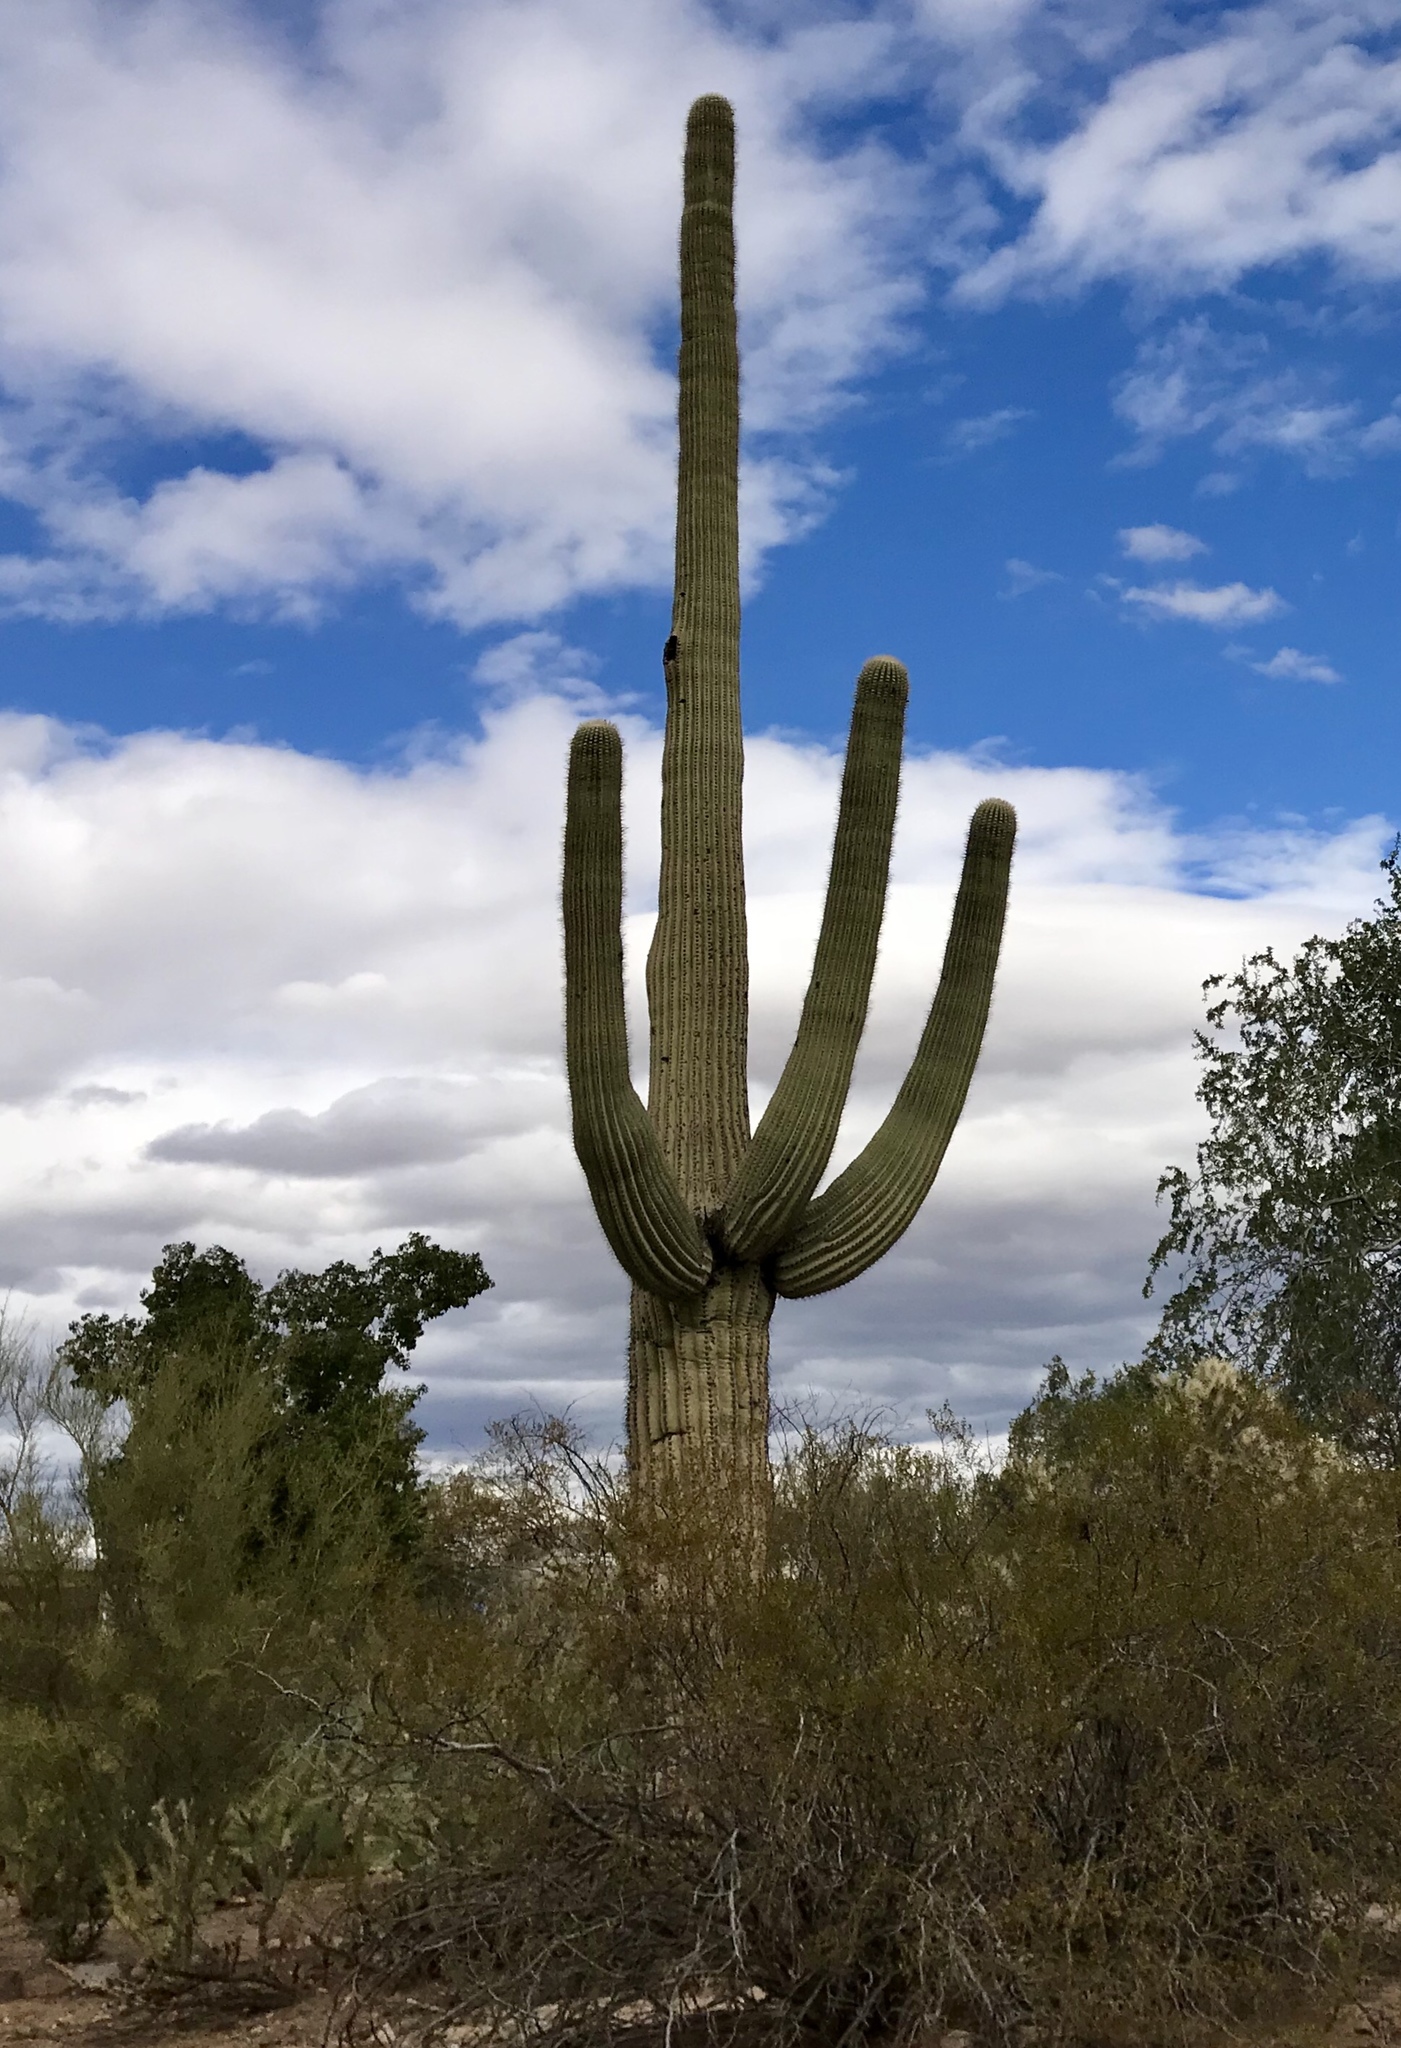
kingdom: Plantae
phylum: Tracheophyta
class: Magnoliopsida
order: Caryophyllales
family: Cactaceae
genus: Carnegiea
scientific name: Carnegiea gigantea
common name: Saguaro
